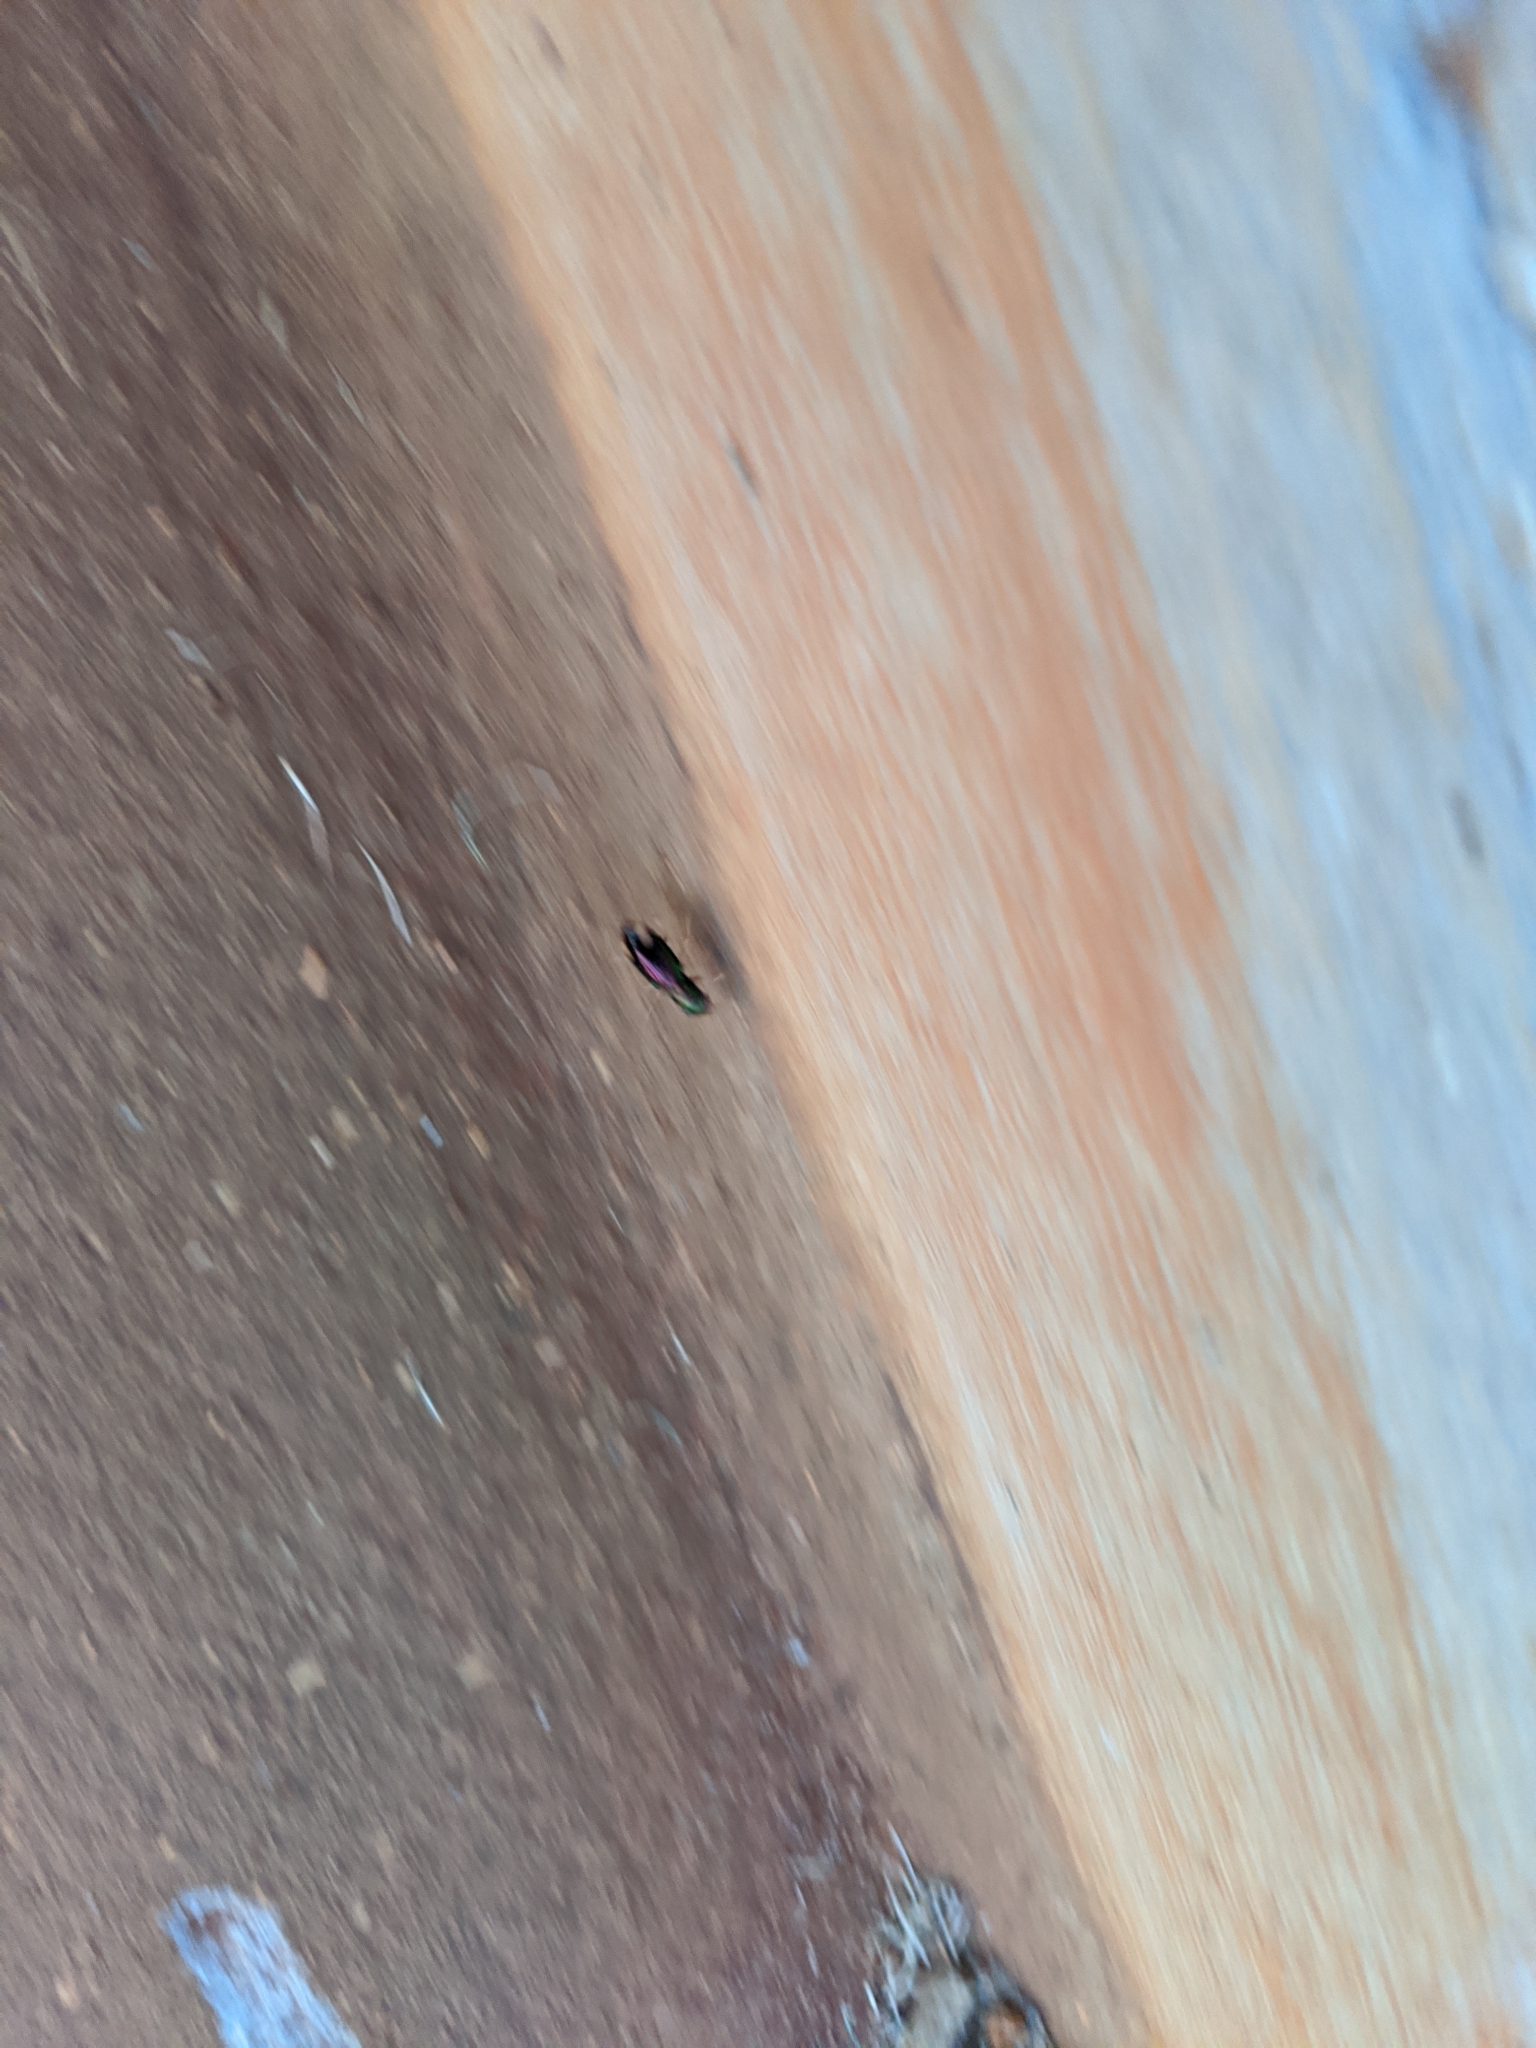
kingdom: Animalia
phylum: Arthropoda
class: Insecta
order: Coleoptera
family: Carabidae
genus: Tetracha
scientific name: Tetracha carolina
